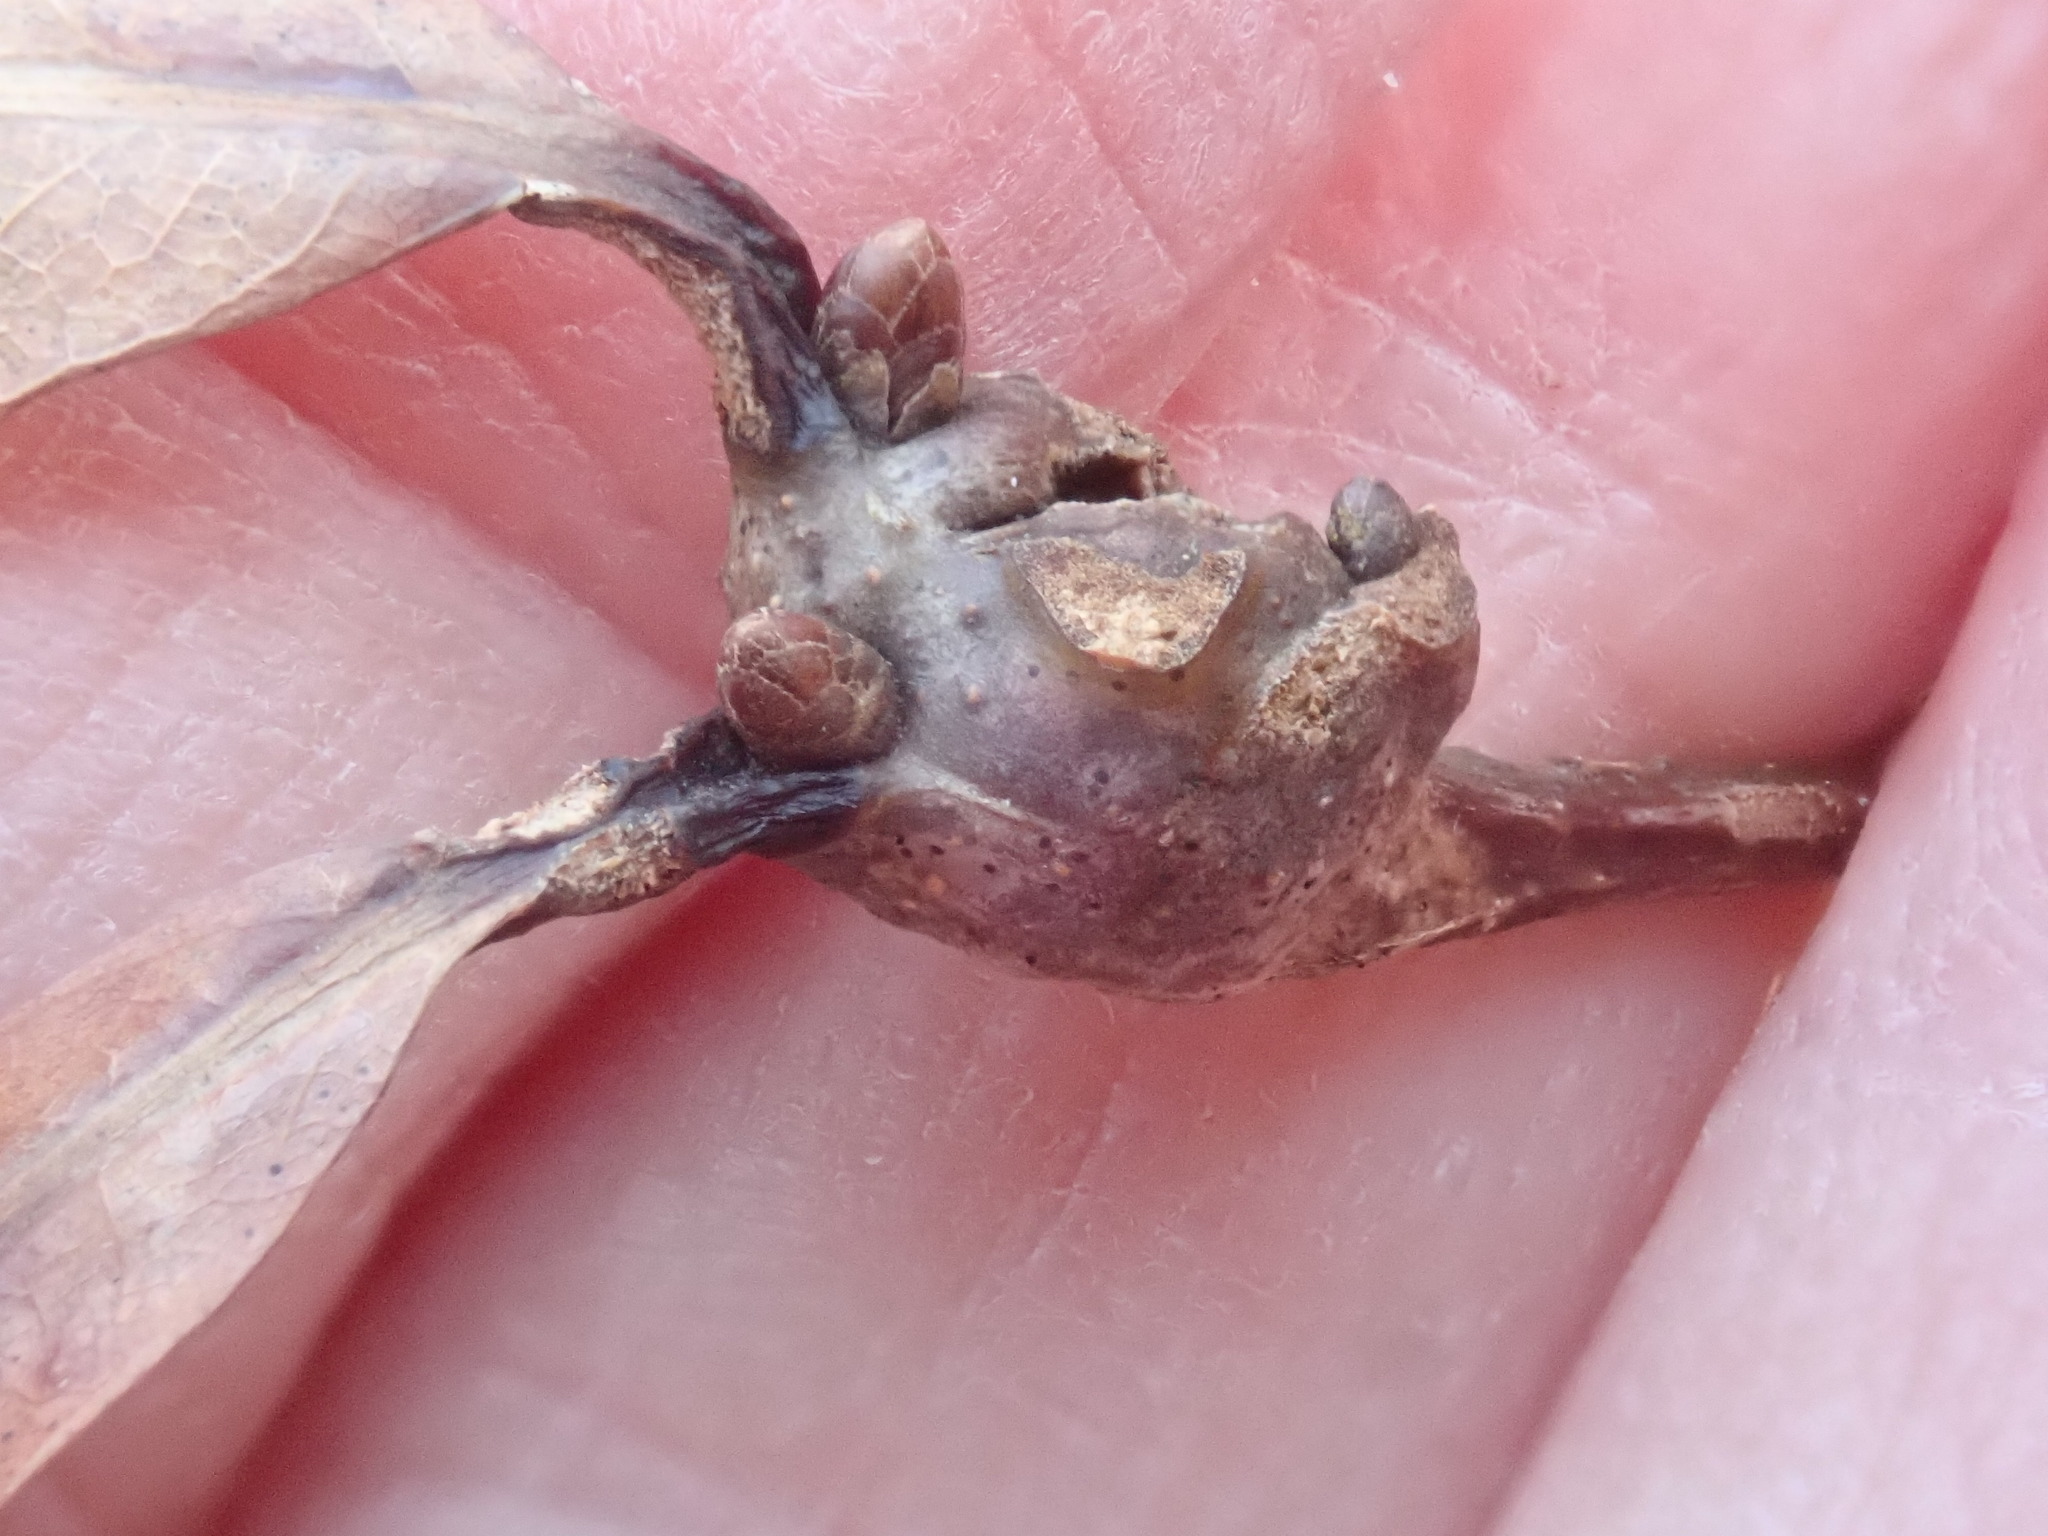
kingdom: Animalia
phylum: Arthropoda
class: Insecta
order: Hymenoptera
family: Cynipidae
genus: Callirhytis
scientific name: Callirhytis clavula
